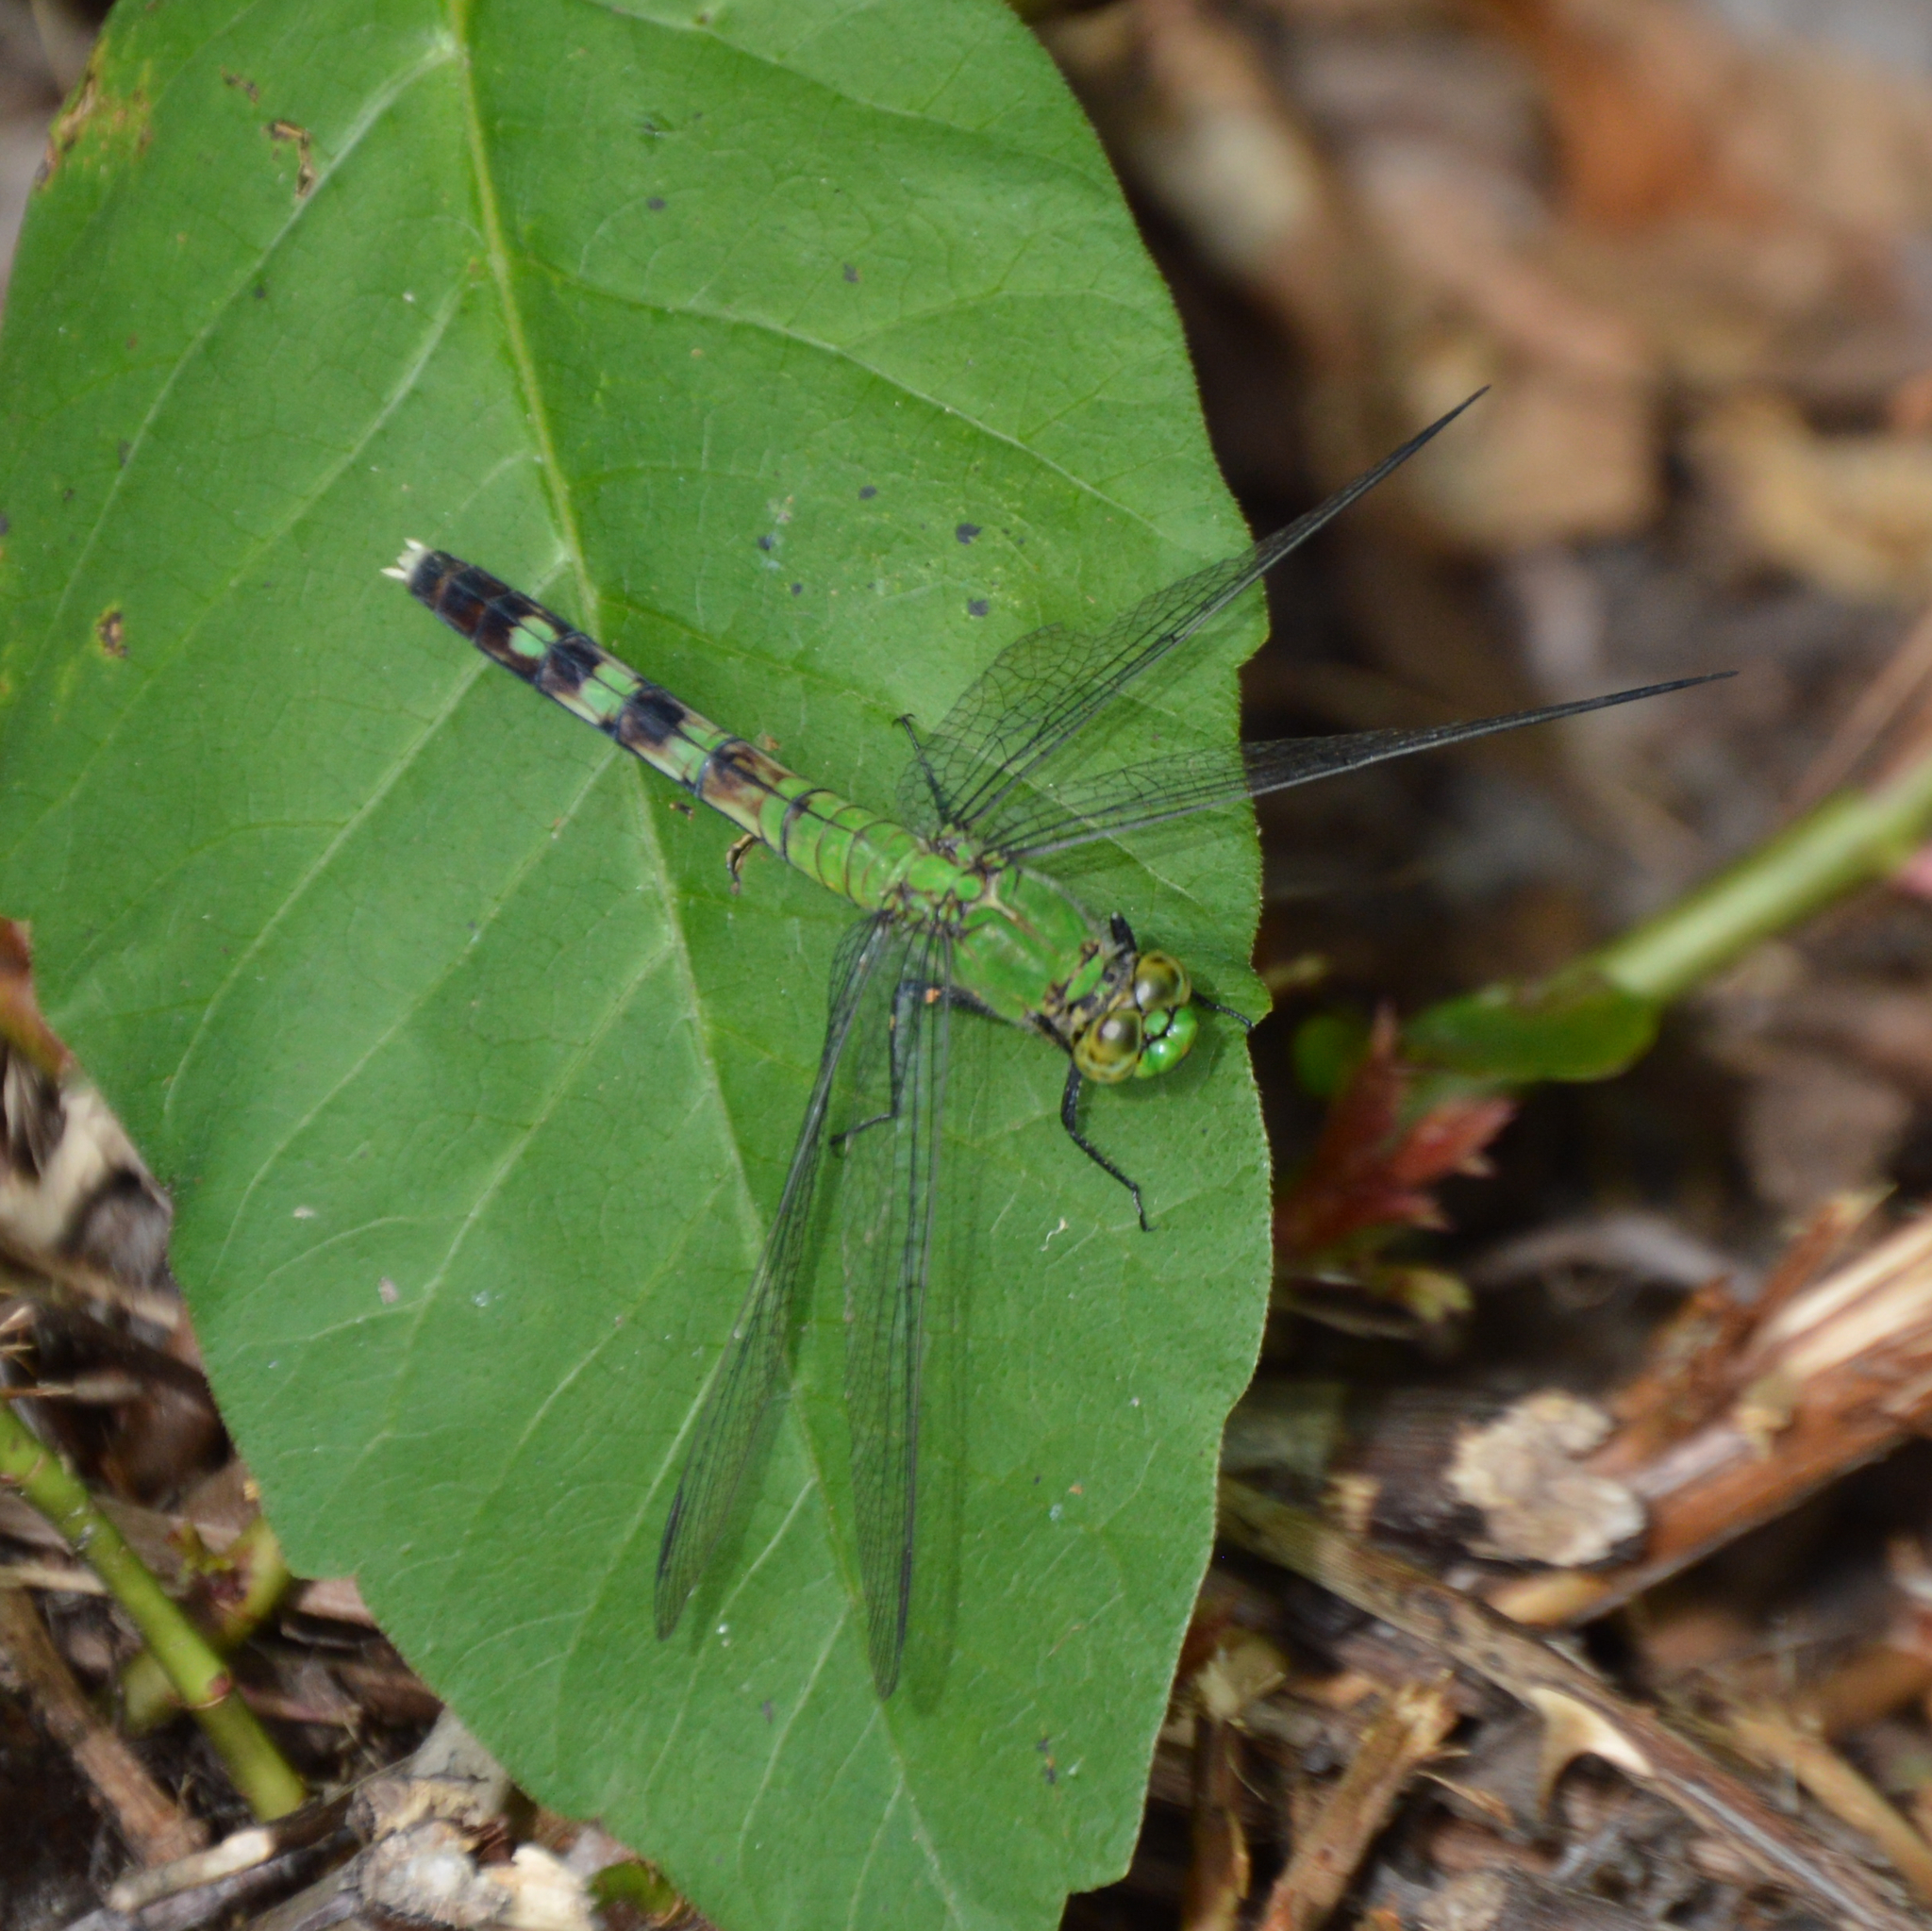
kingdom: Animalia
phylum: Arthropoda
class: Insecta
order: Odonata
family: Libellulidae
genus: Erythemis
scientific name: Erythemis simplicicollis
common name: Eastern pondhawk
